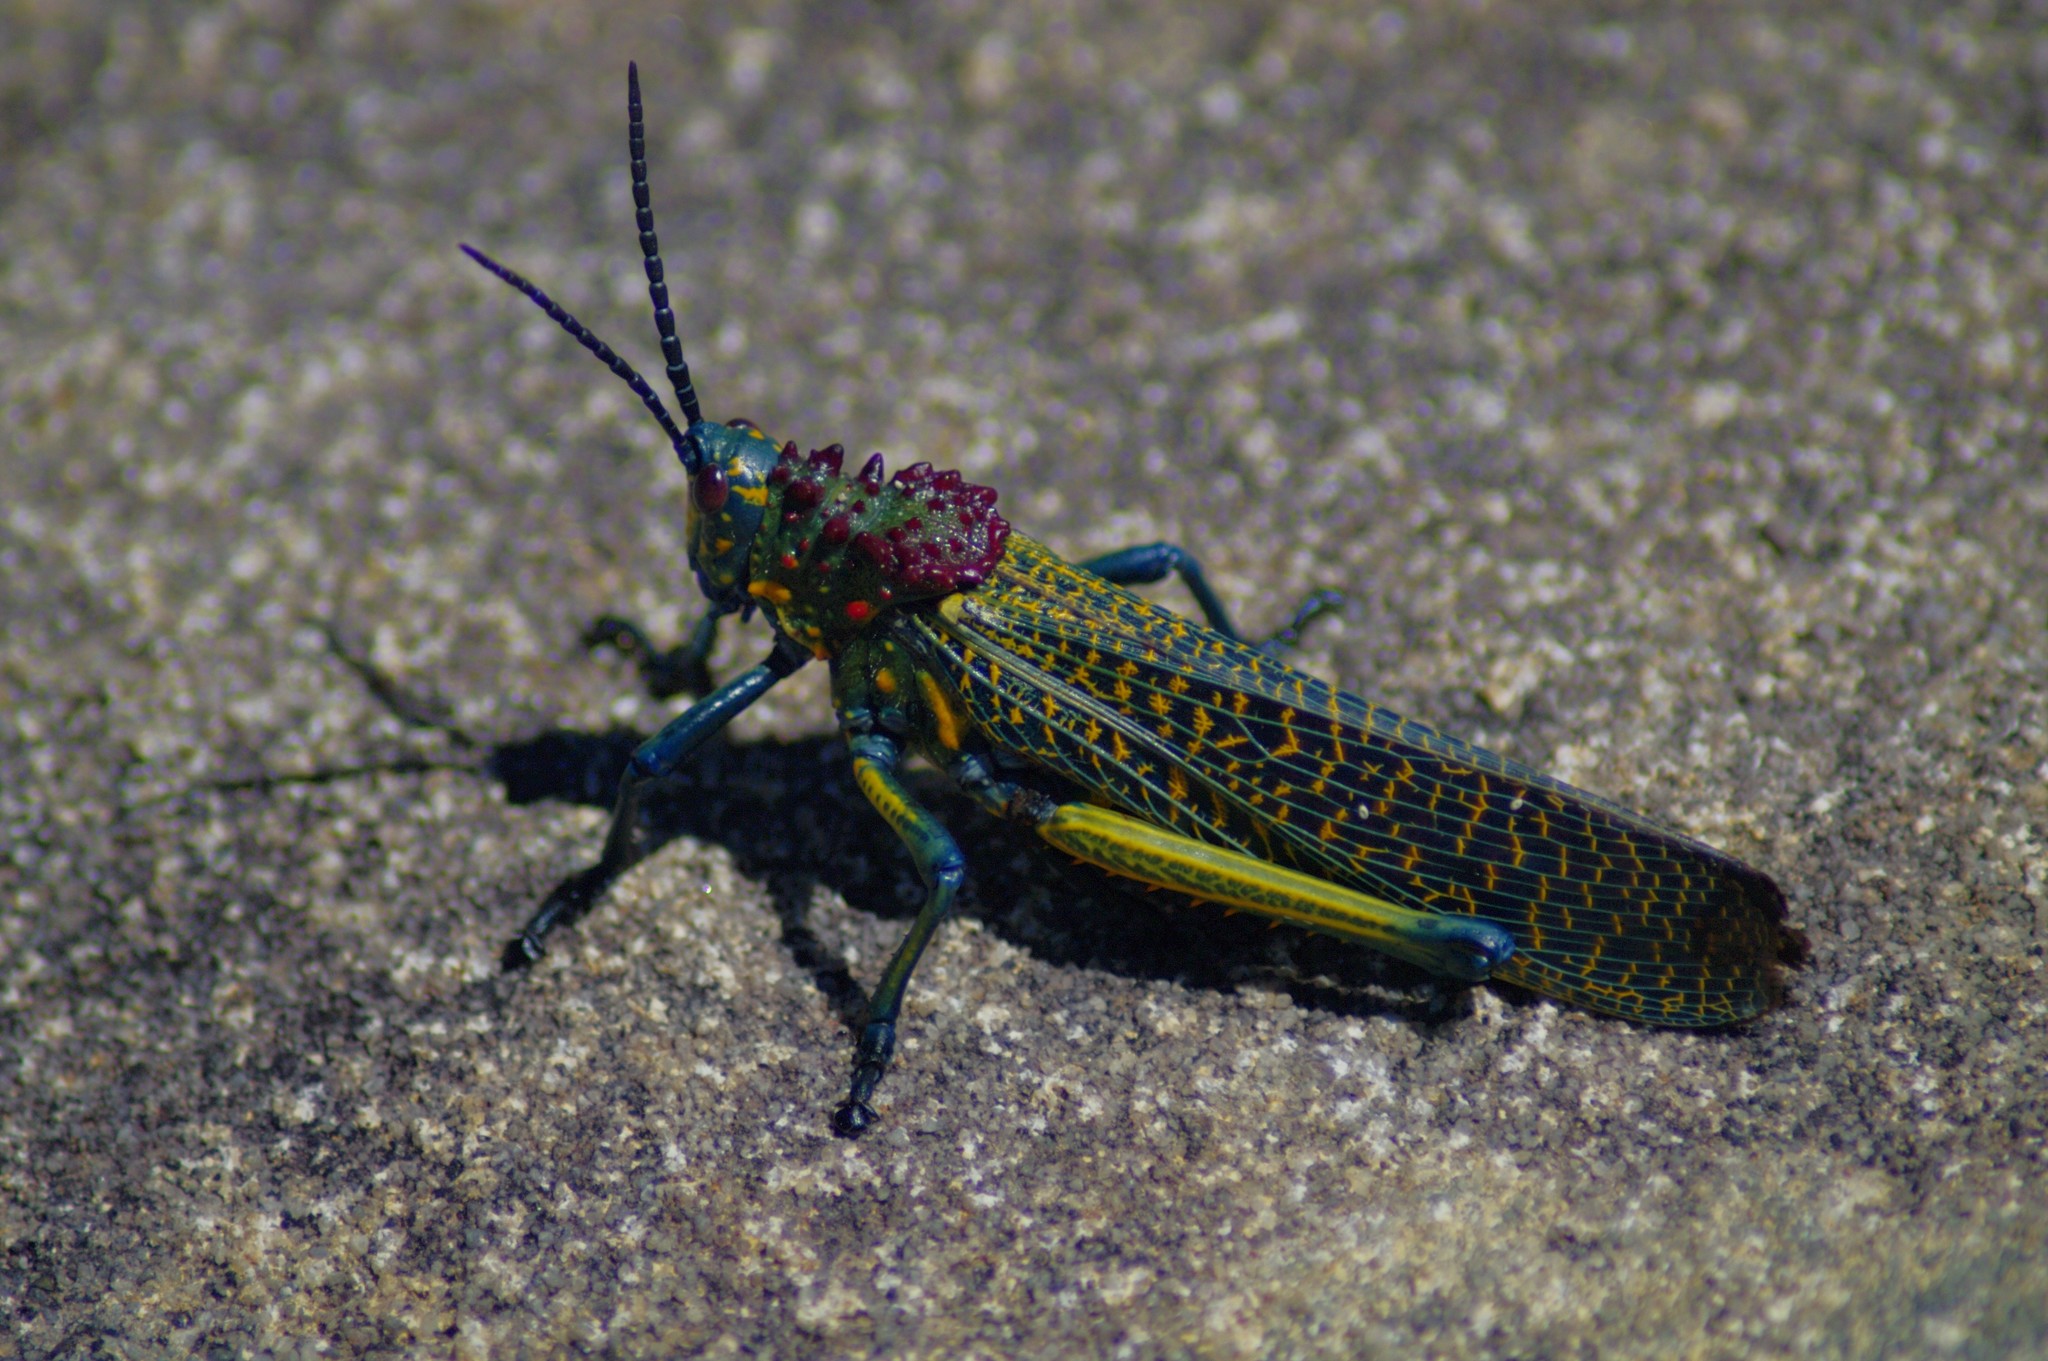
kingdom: Animalia
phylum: Arthropoda
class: Insecta
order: Orthoptera
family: Pyrgomorphidae
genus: Phymateus
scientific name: Phymateus saxosus
